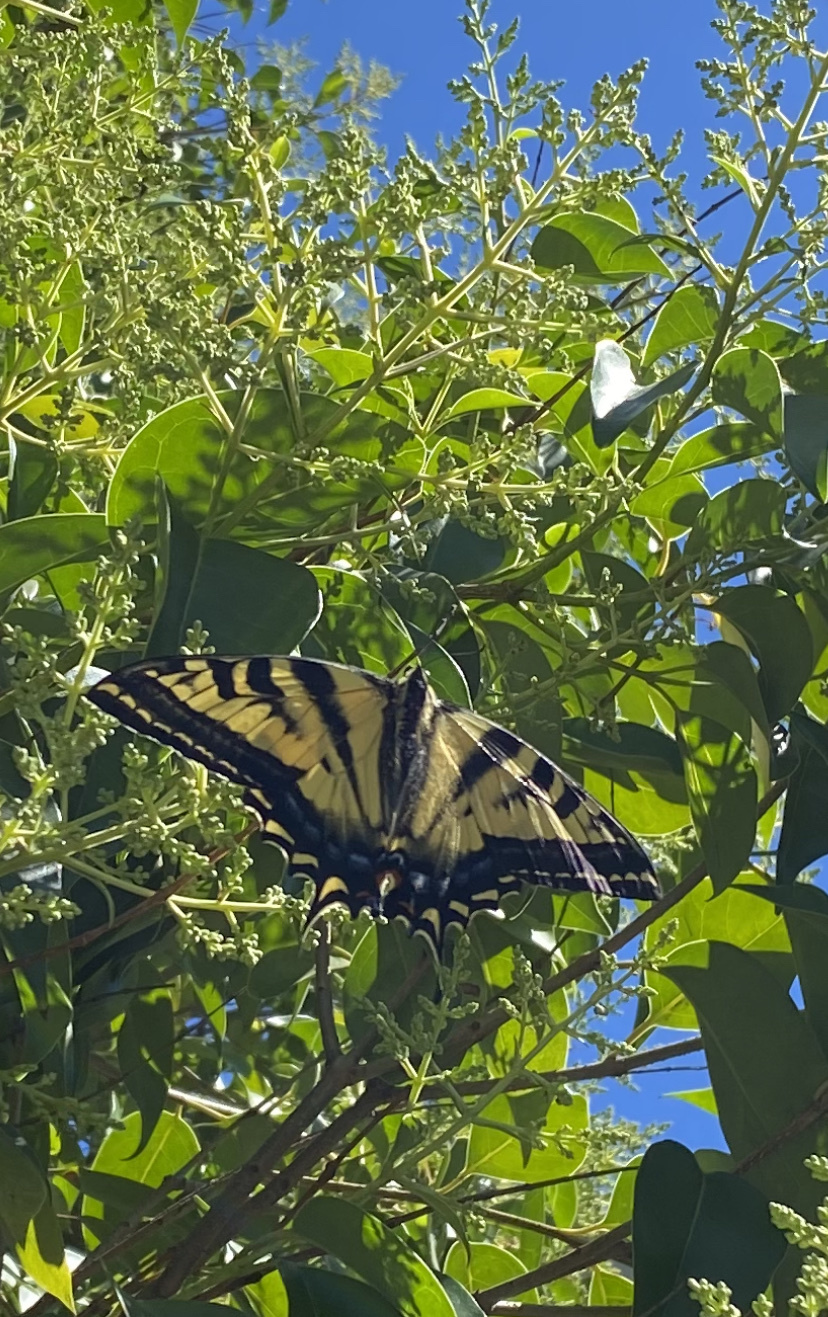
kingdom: Animalia
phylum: Arthropoda
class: Insecta
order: Lepidoptera
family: Papilionidae
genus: Papilio
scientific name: Papilio rutulus
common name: Western tiger swallowtail
